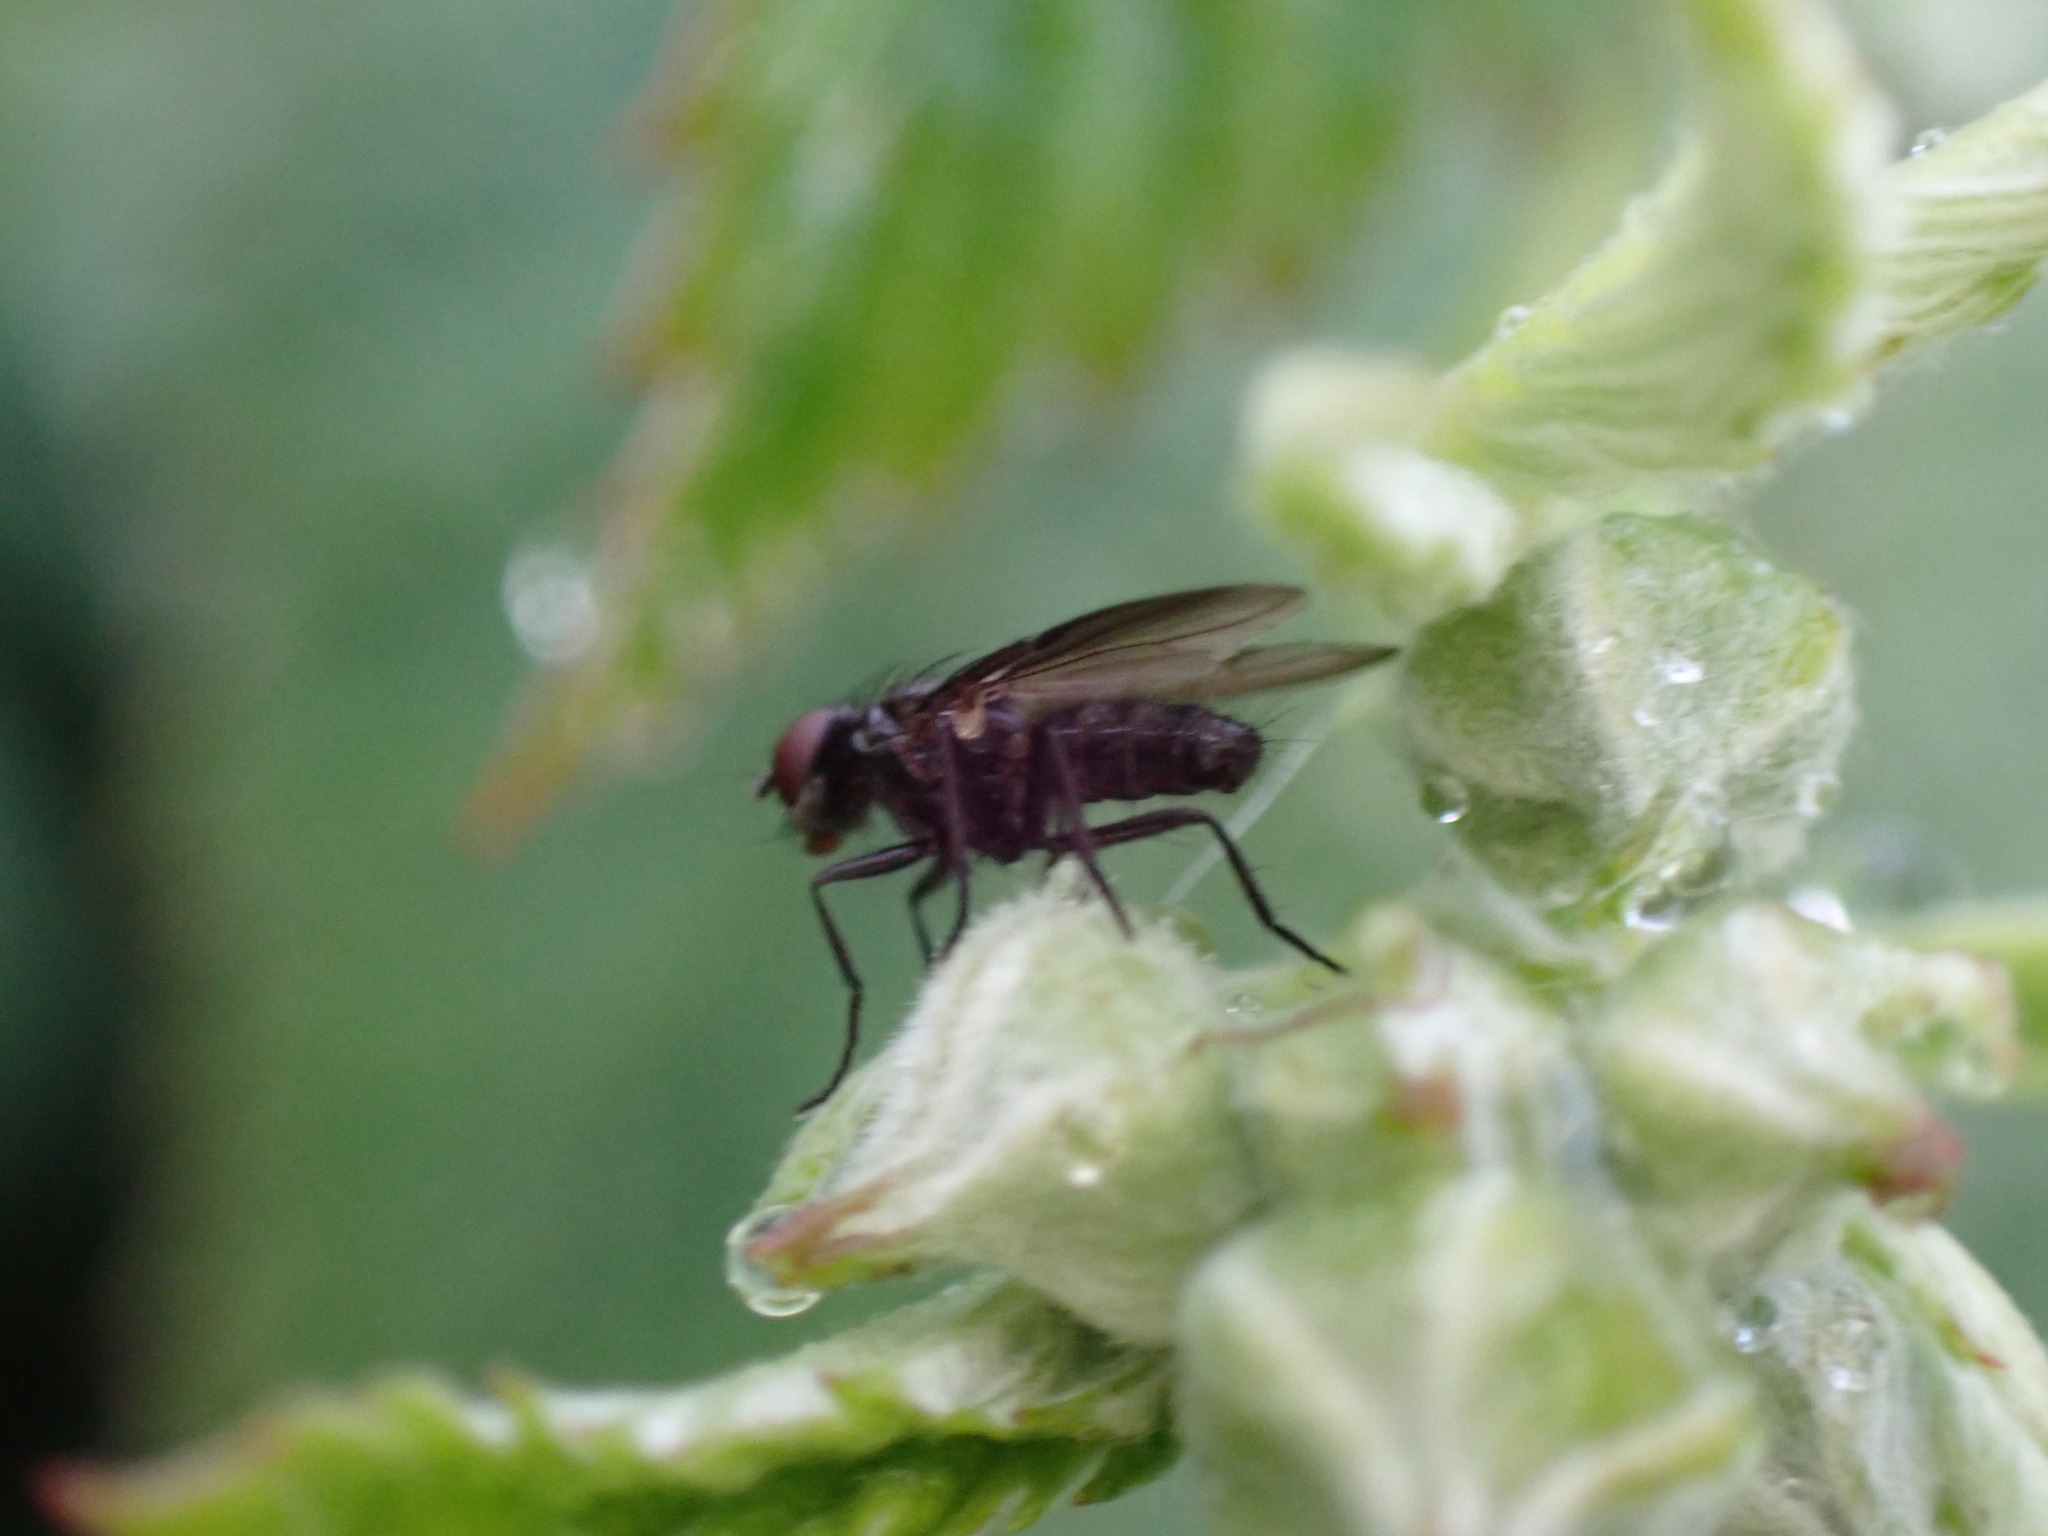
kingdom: Animalia
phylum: Arthropoda
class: Insecta
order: Diptera
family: Calliphoridae
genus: Melanomya
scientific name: Melanomya nana
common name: Little black blowfly
